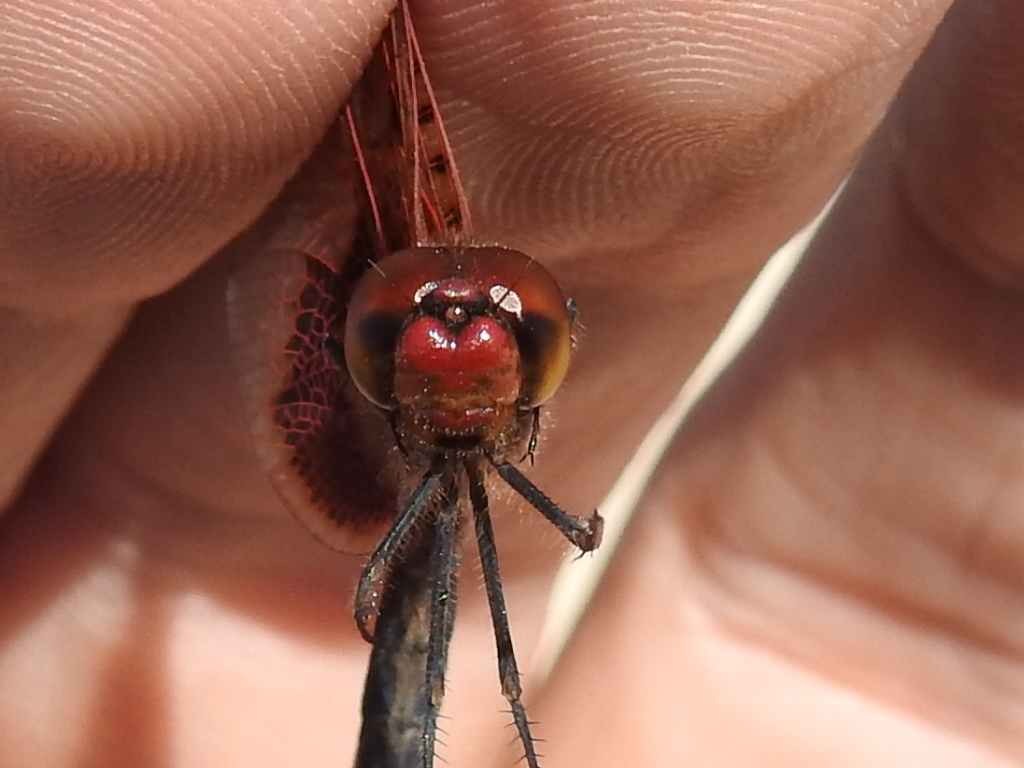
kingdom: Animalia
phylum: Arthropoda
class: Insecta
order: Odonata
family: Libellulidae
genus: Celithemis
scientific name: Celithemis elisa
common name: Calico pennant
